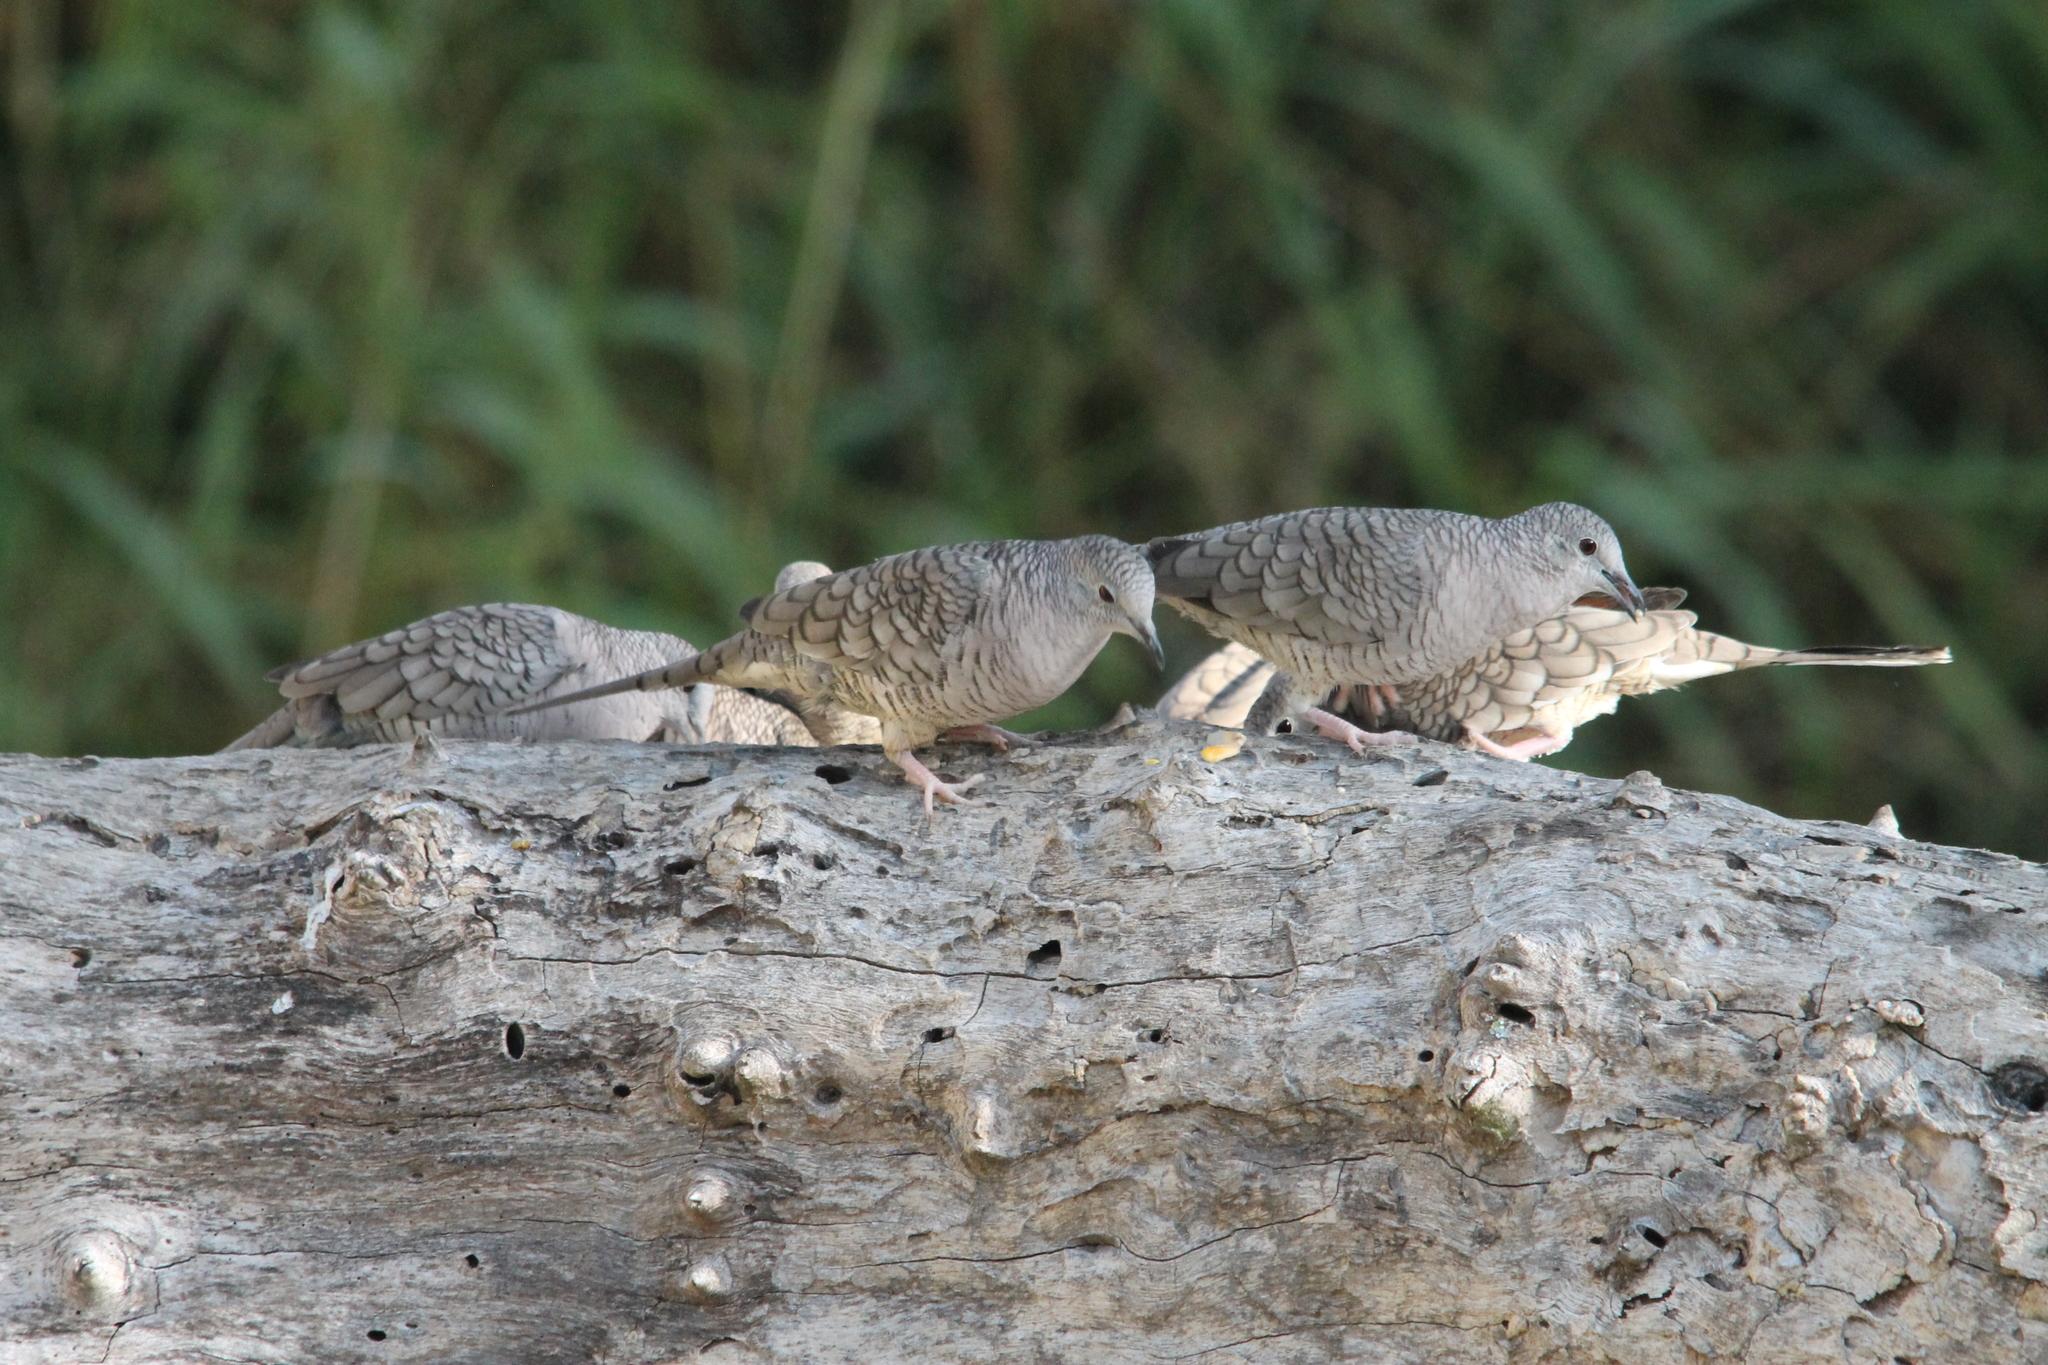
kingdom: Animalia
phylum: Chordata
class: Aves
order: Columbiformes
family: Columbidae
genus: Columbina
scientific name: Columbina inca
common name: Inca dove
